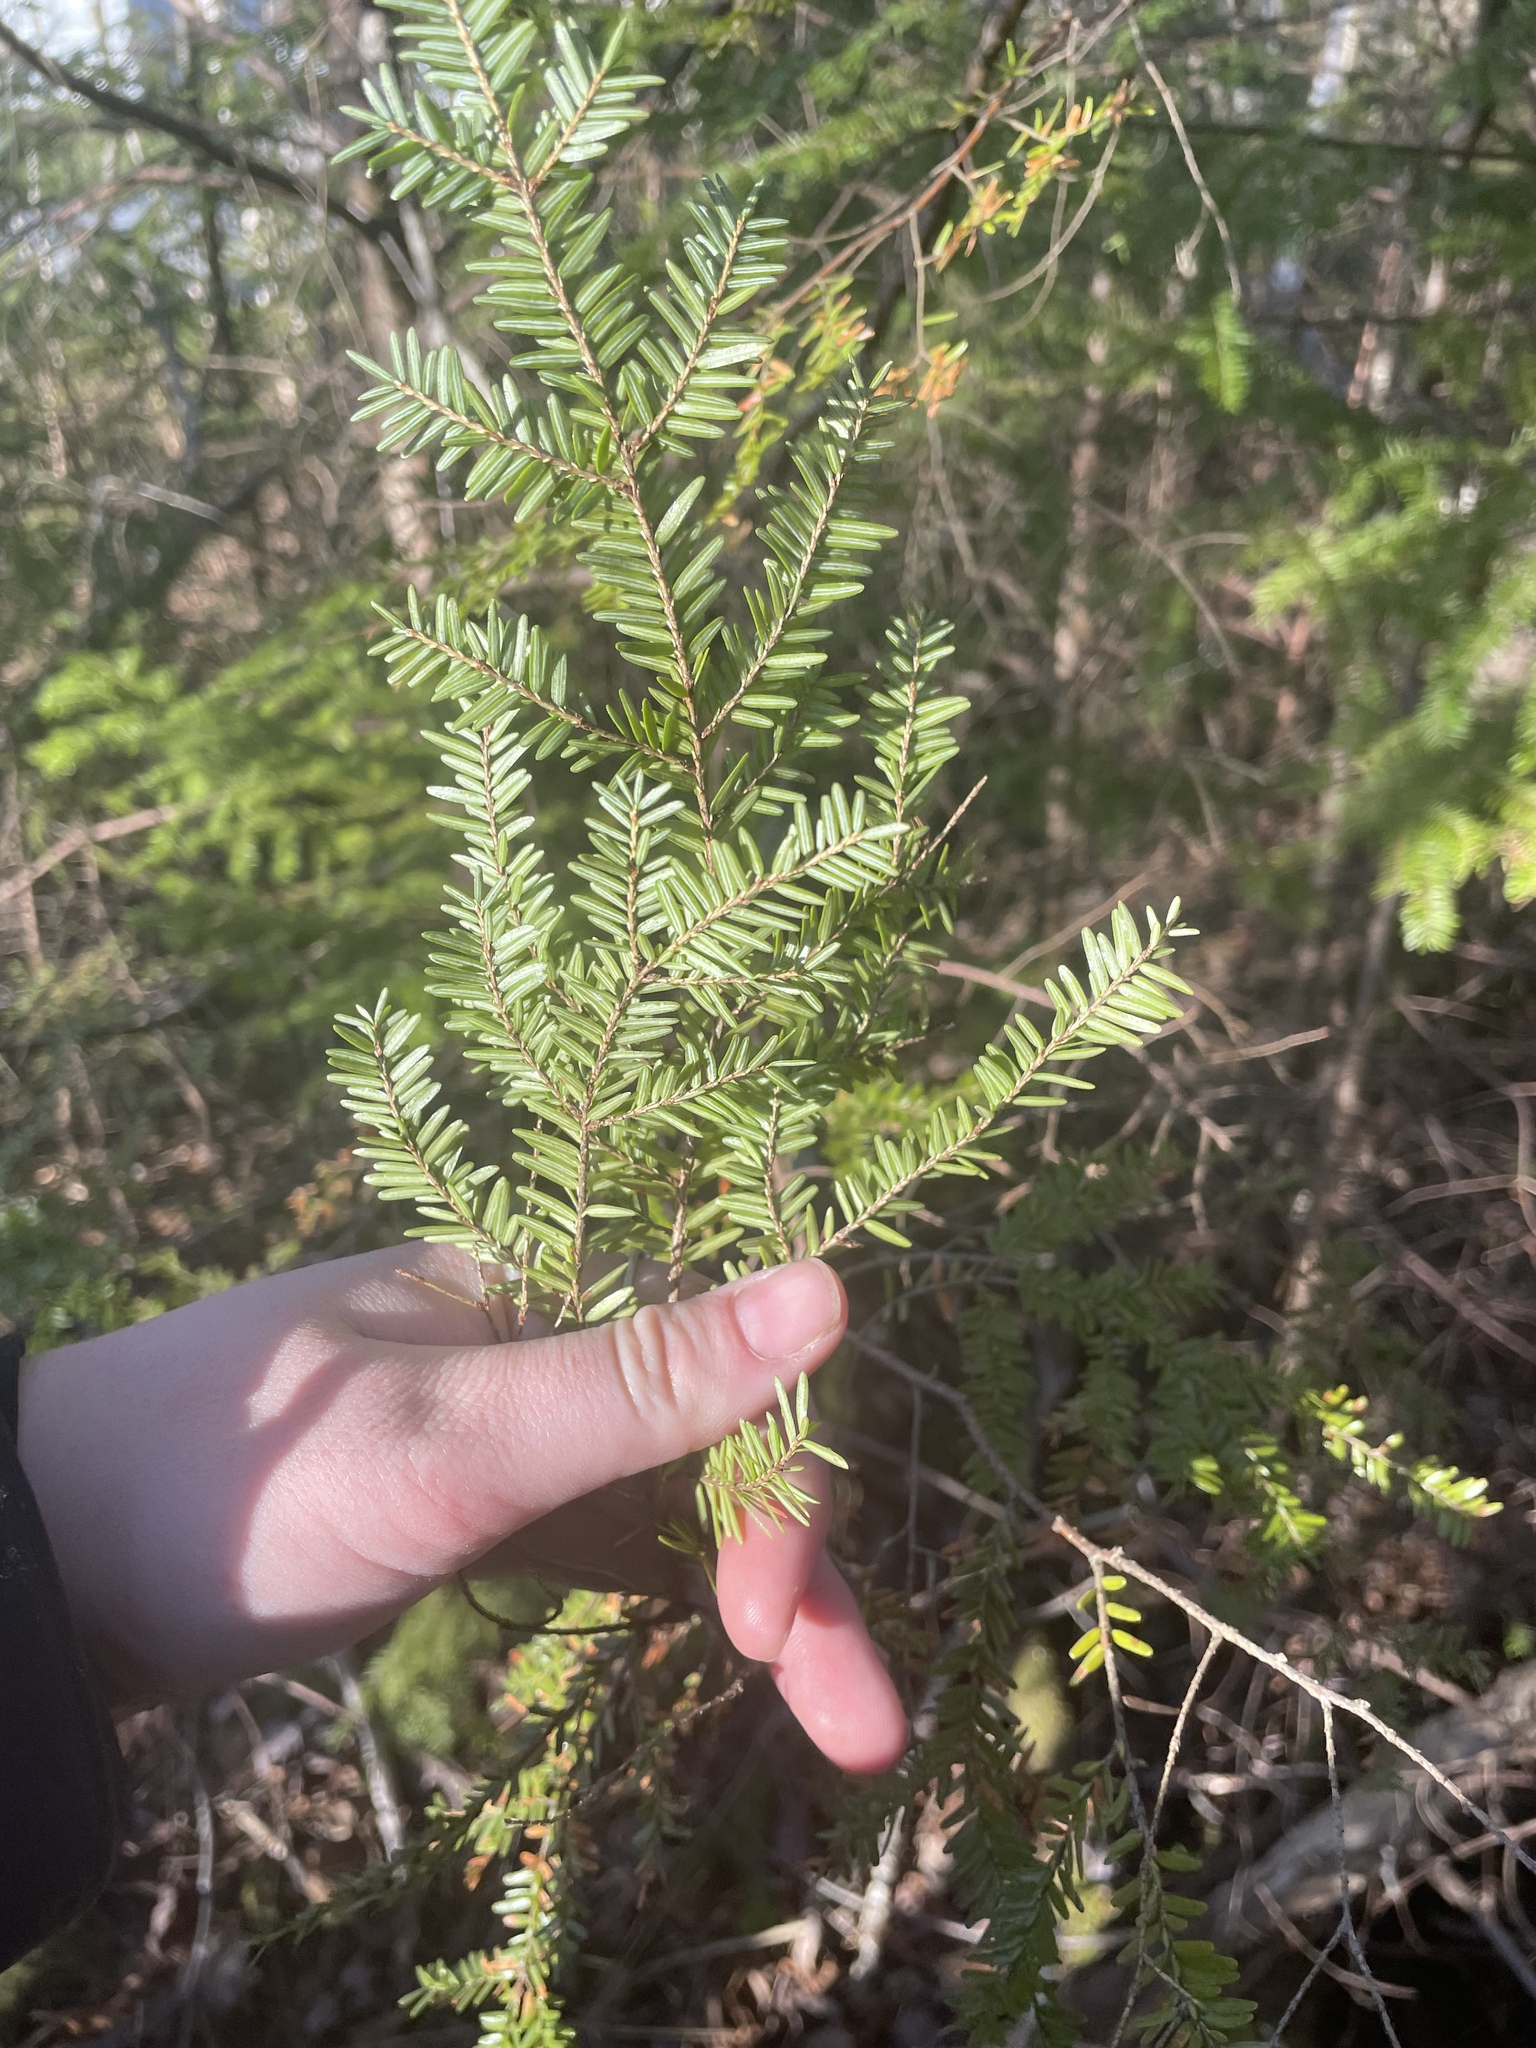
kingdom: Plantae
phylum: Tracheophyta
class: Pinopsida
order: Pinales
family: Pinaceae
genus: Tsuga
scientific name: Tsuga canadensis
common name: Eastern hemlock
